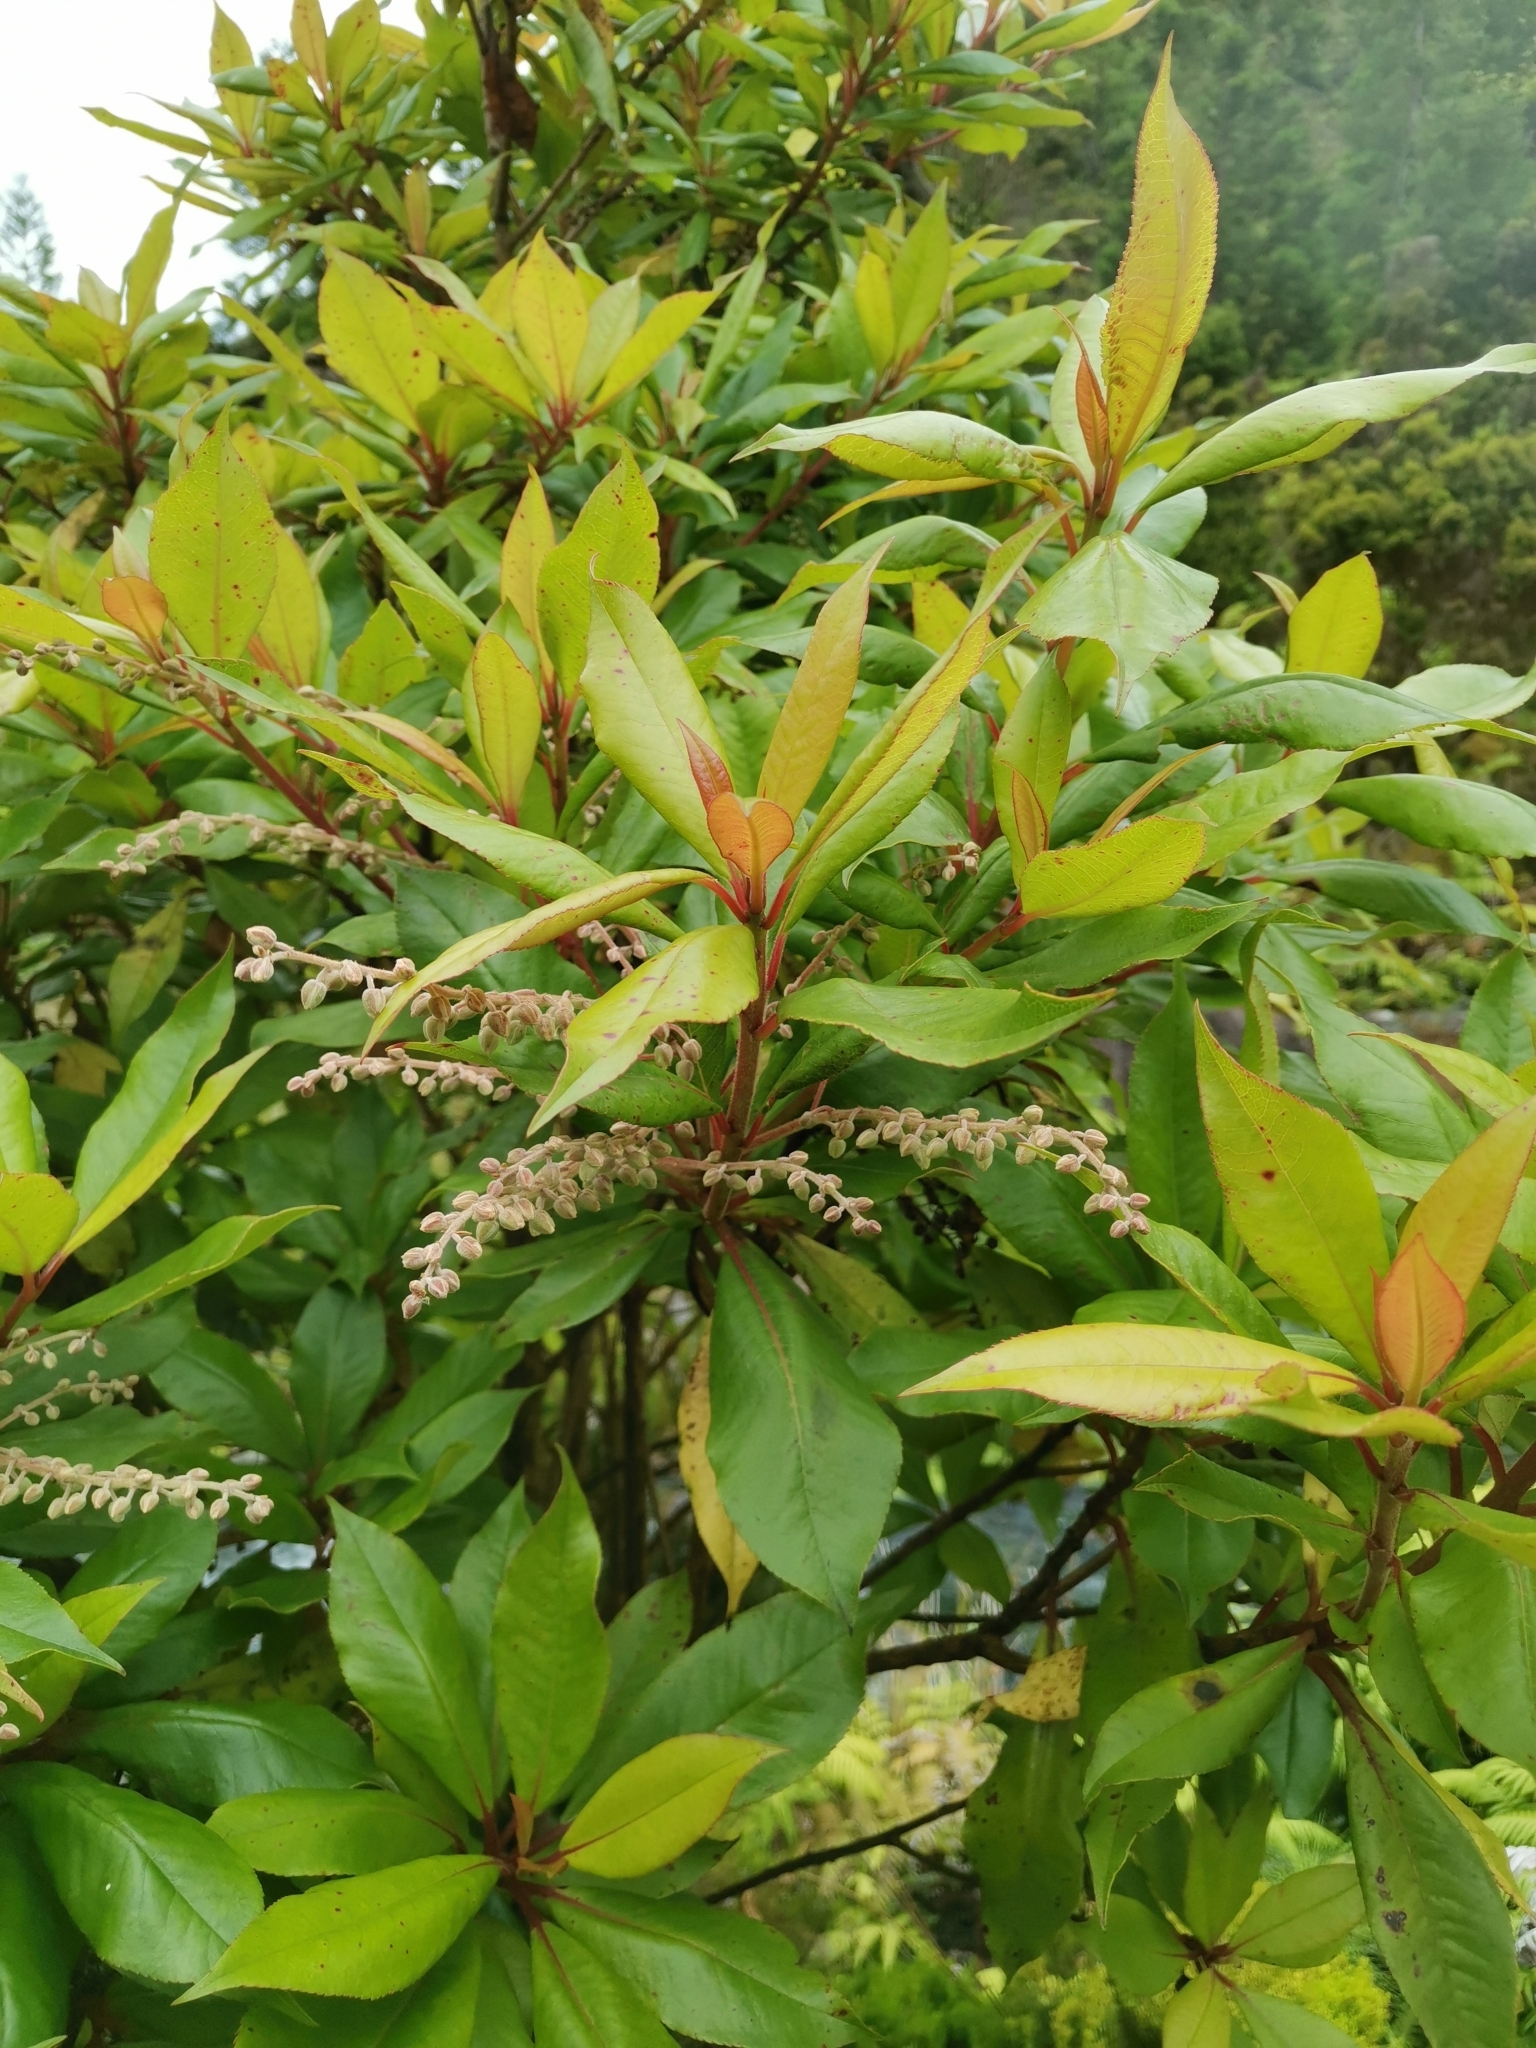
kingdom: Plantae
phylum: Tracheophyta
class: Magnoliopsida
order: Ericales
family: Clethraceae
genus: Clethra
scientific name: Clethra arborea
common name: Lily-of-the-valley-tree
